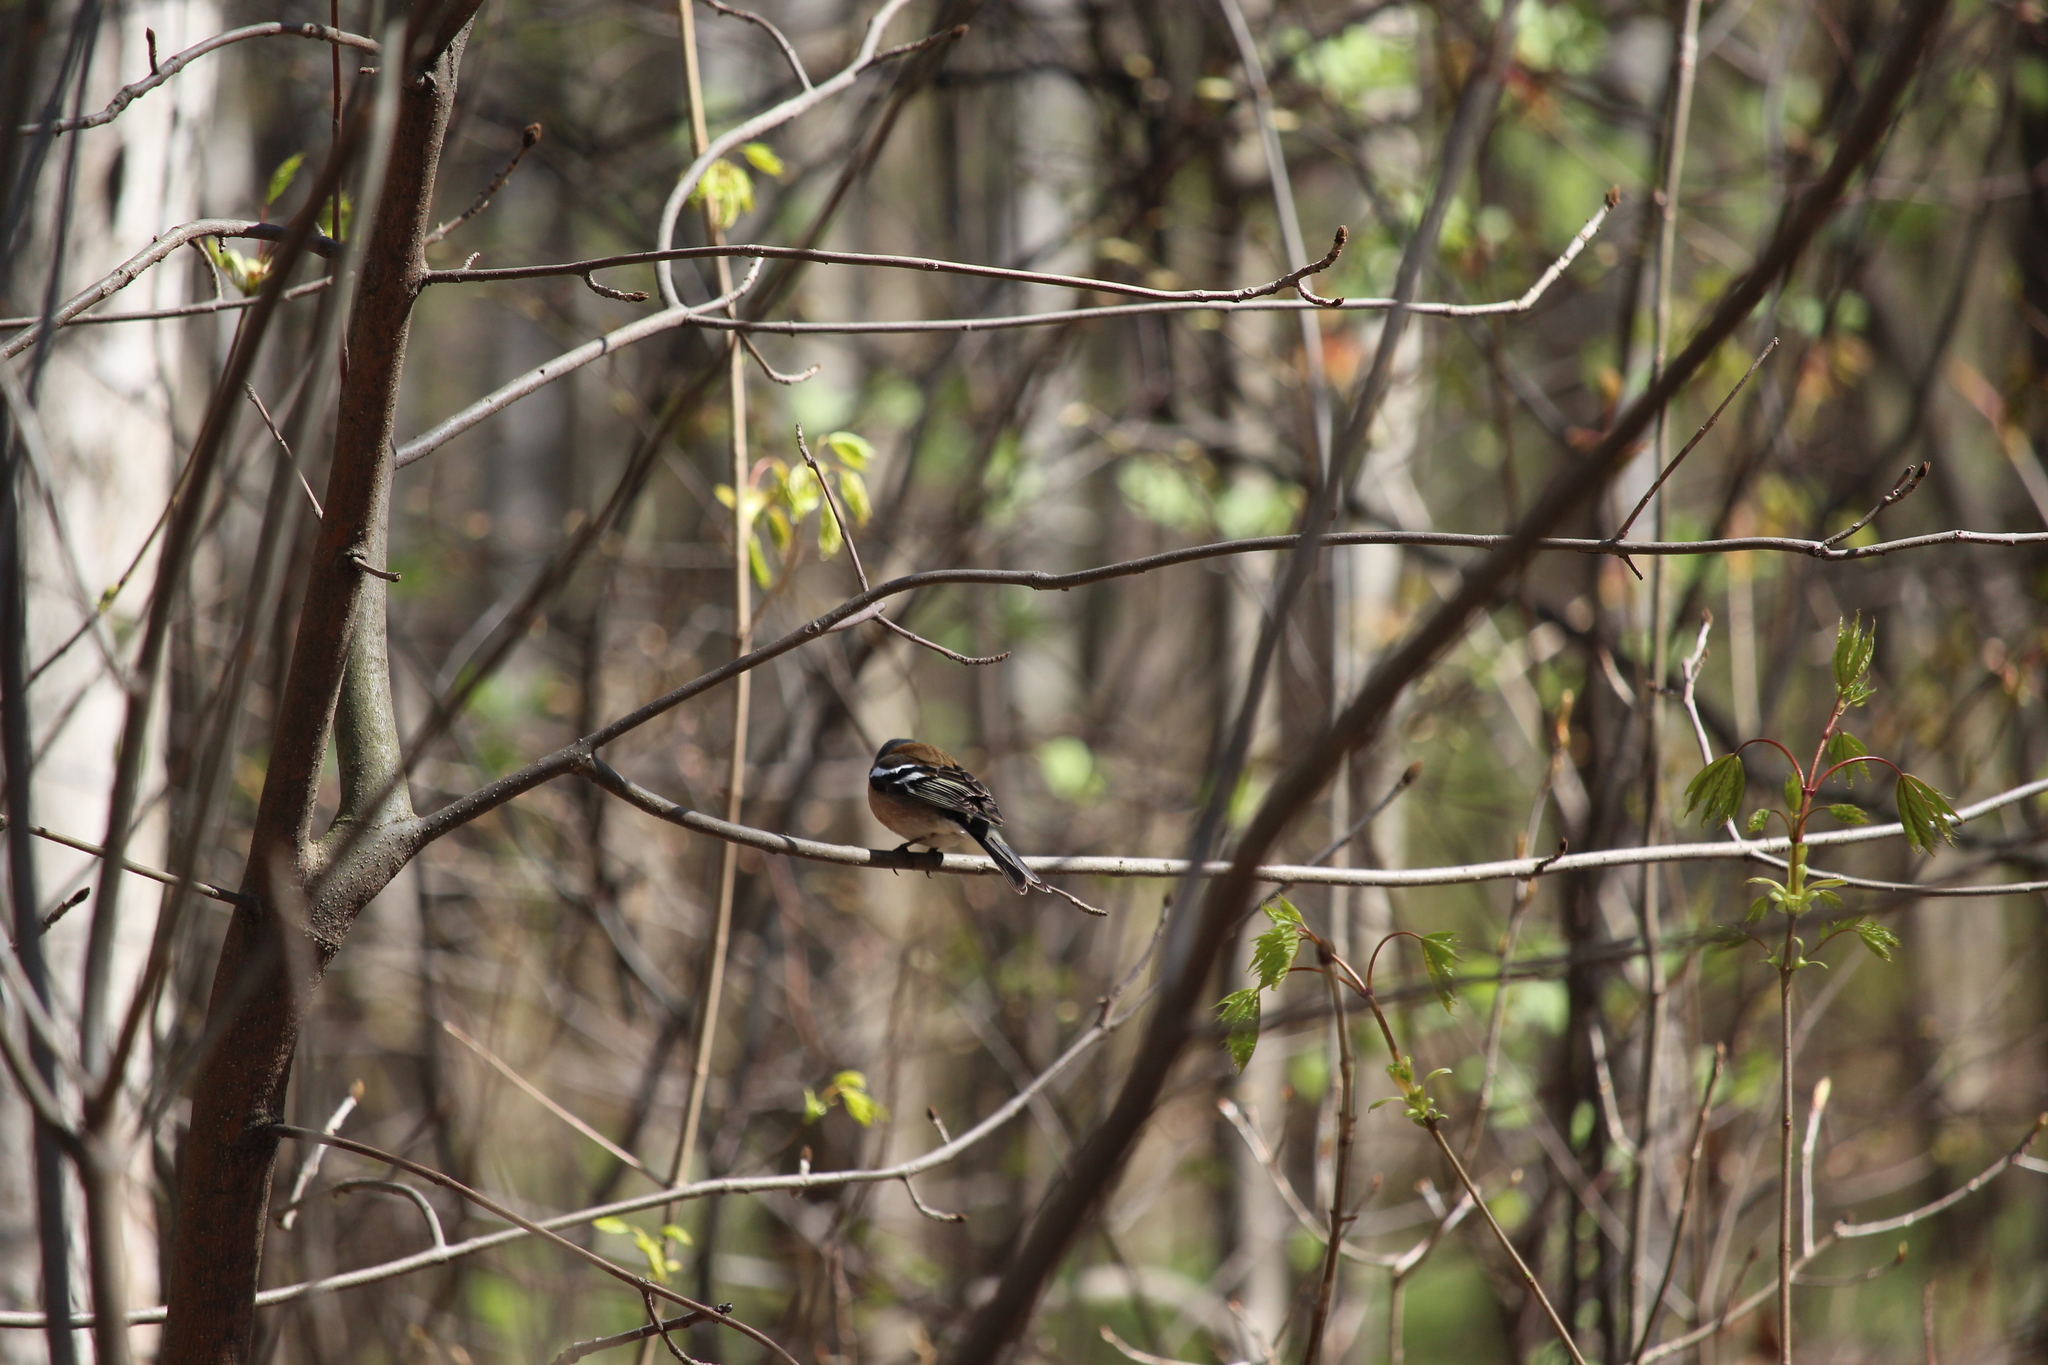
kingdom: Animalia
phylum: Chordata
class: Aves
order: Passeriformes
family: Fringillidae
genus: Fringilla
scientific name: Fringilla coelebs
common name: Common chaffinch
